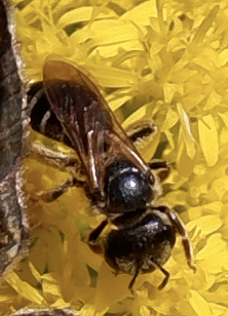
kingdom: Animalia
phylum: Arthropoda
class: Insecta
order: Hymenoptera
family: Halictidae
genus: Halictus
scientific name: Halictus ligatus
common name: Ligated furrow bee
